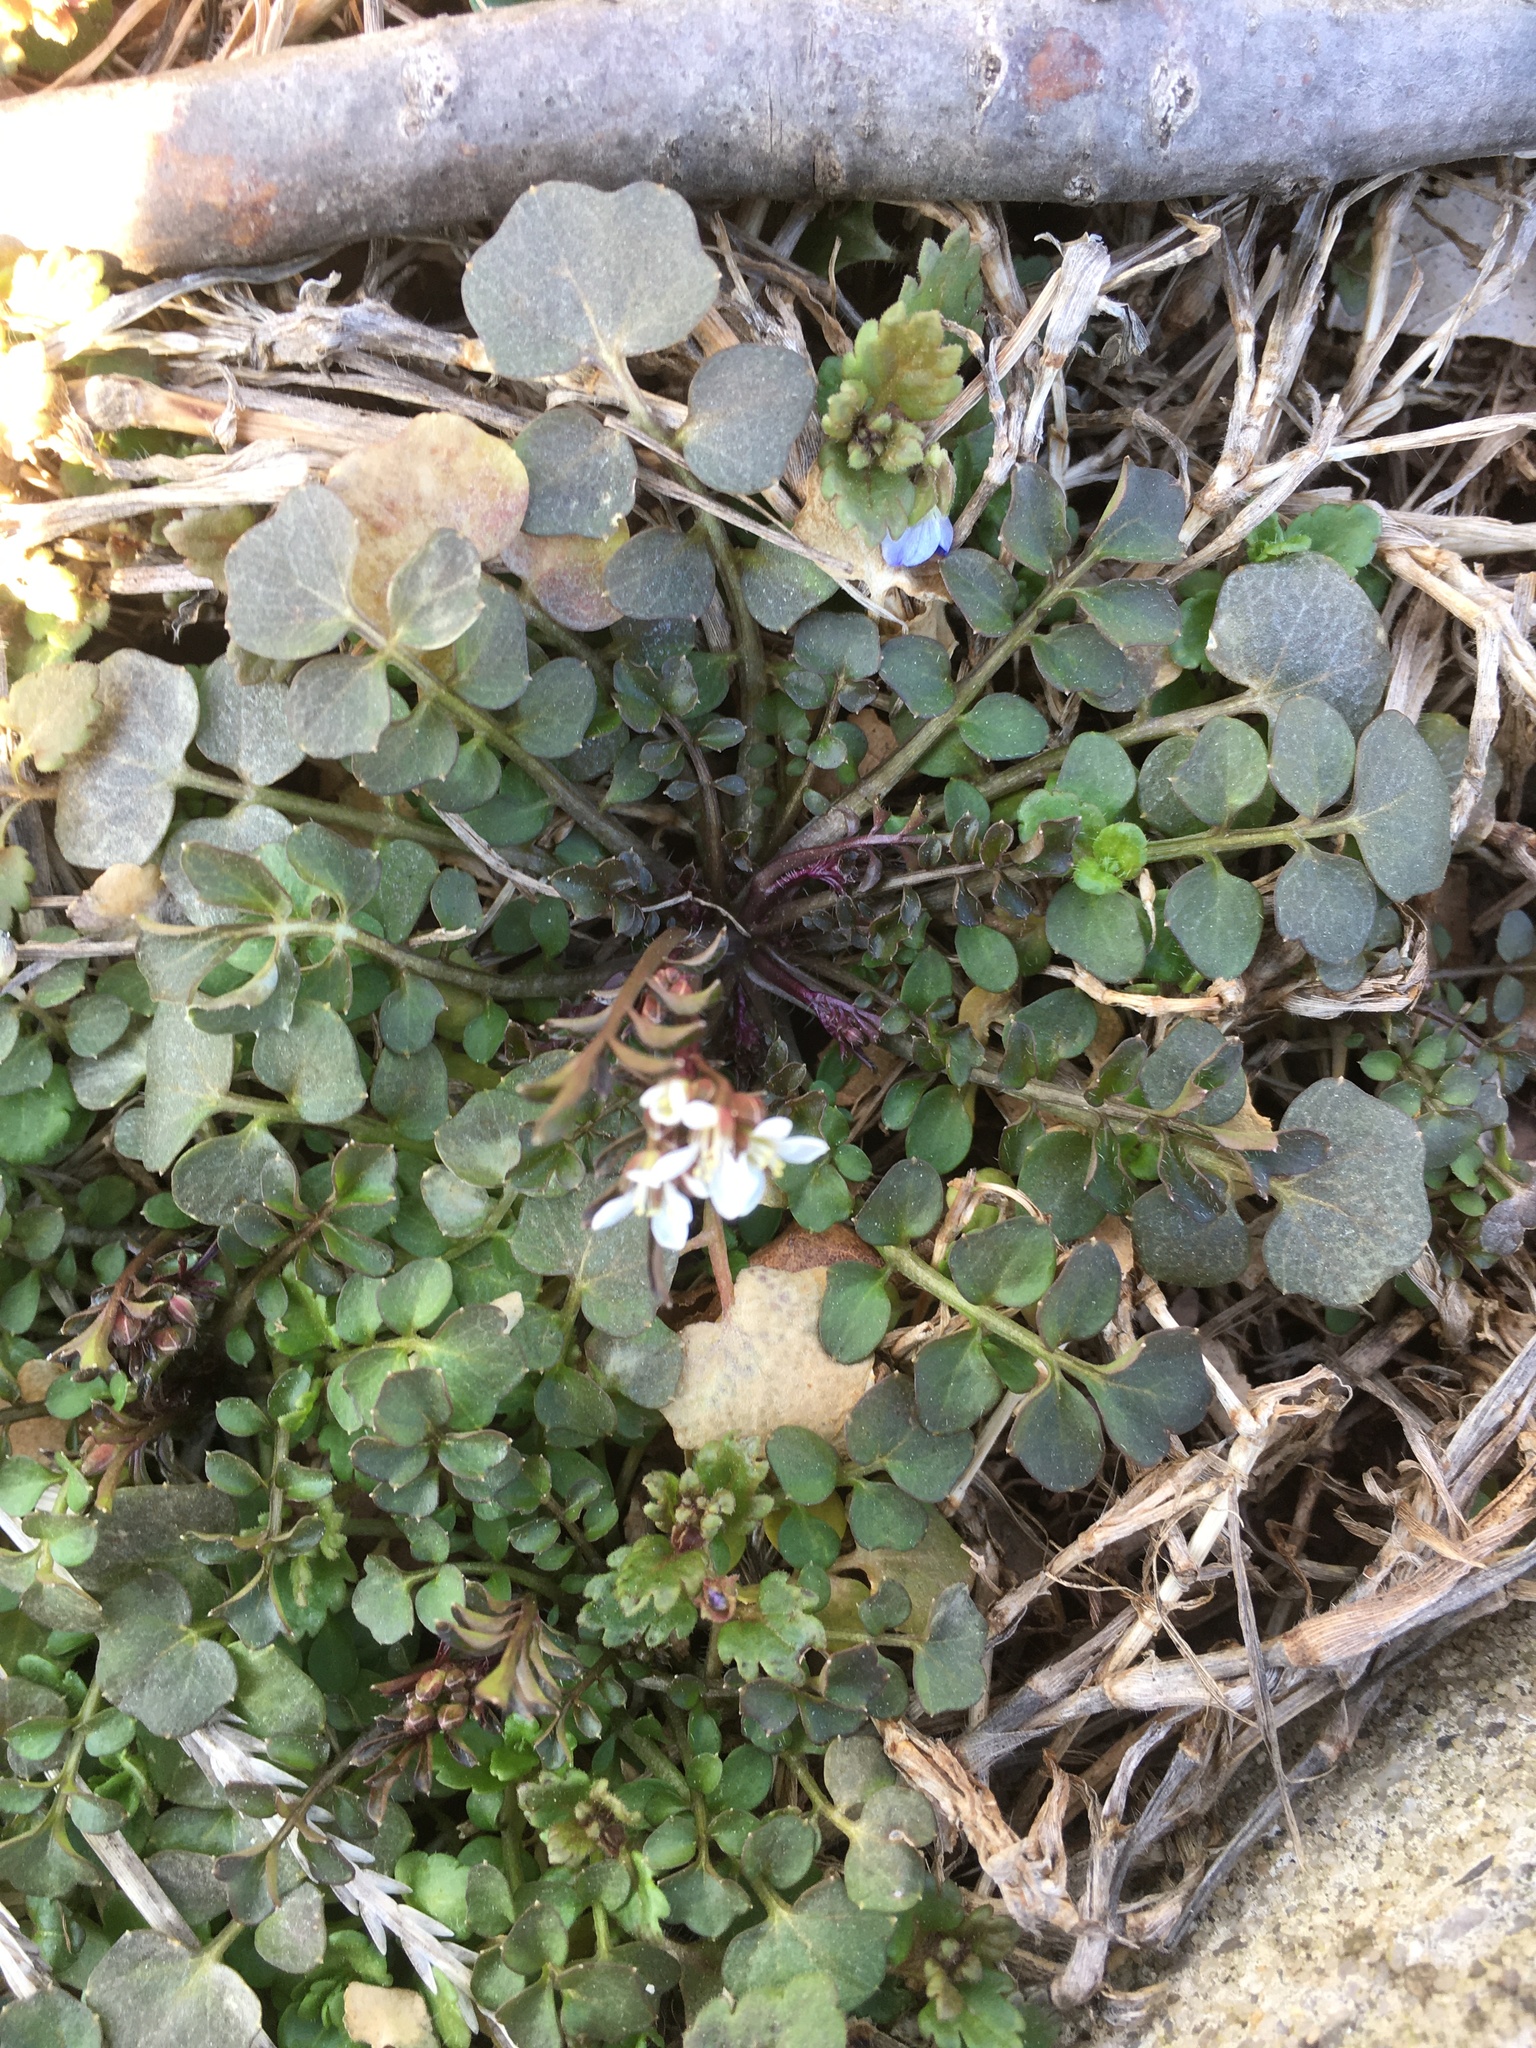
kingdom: Plantae
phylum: Tracheophyta
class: Magnoliopsida
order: Brassicales
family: Brassicaceae
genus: Cardamine
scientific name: Cardamine hirsuta
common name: Hairy bittercress
